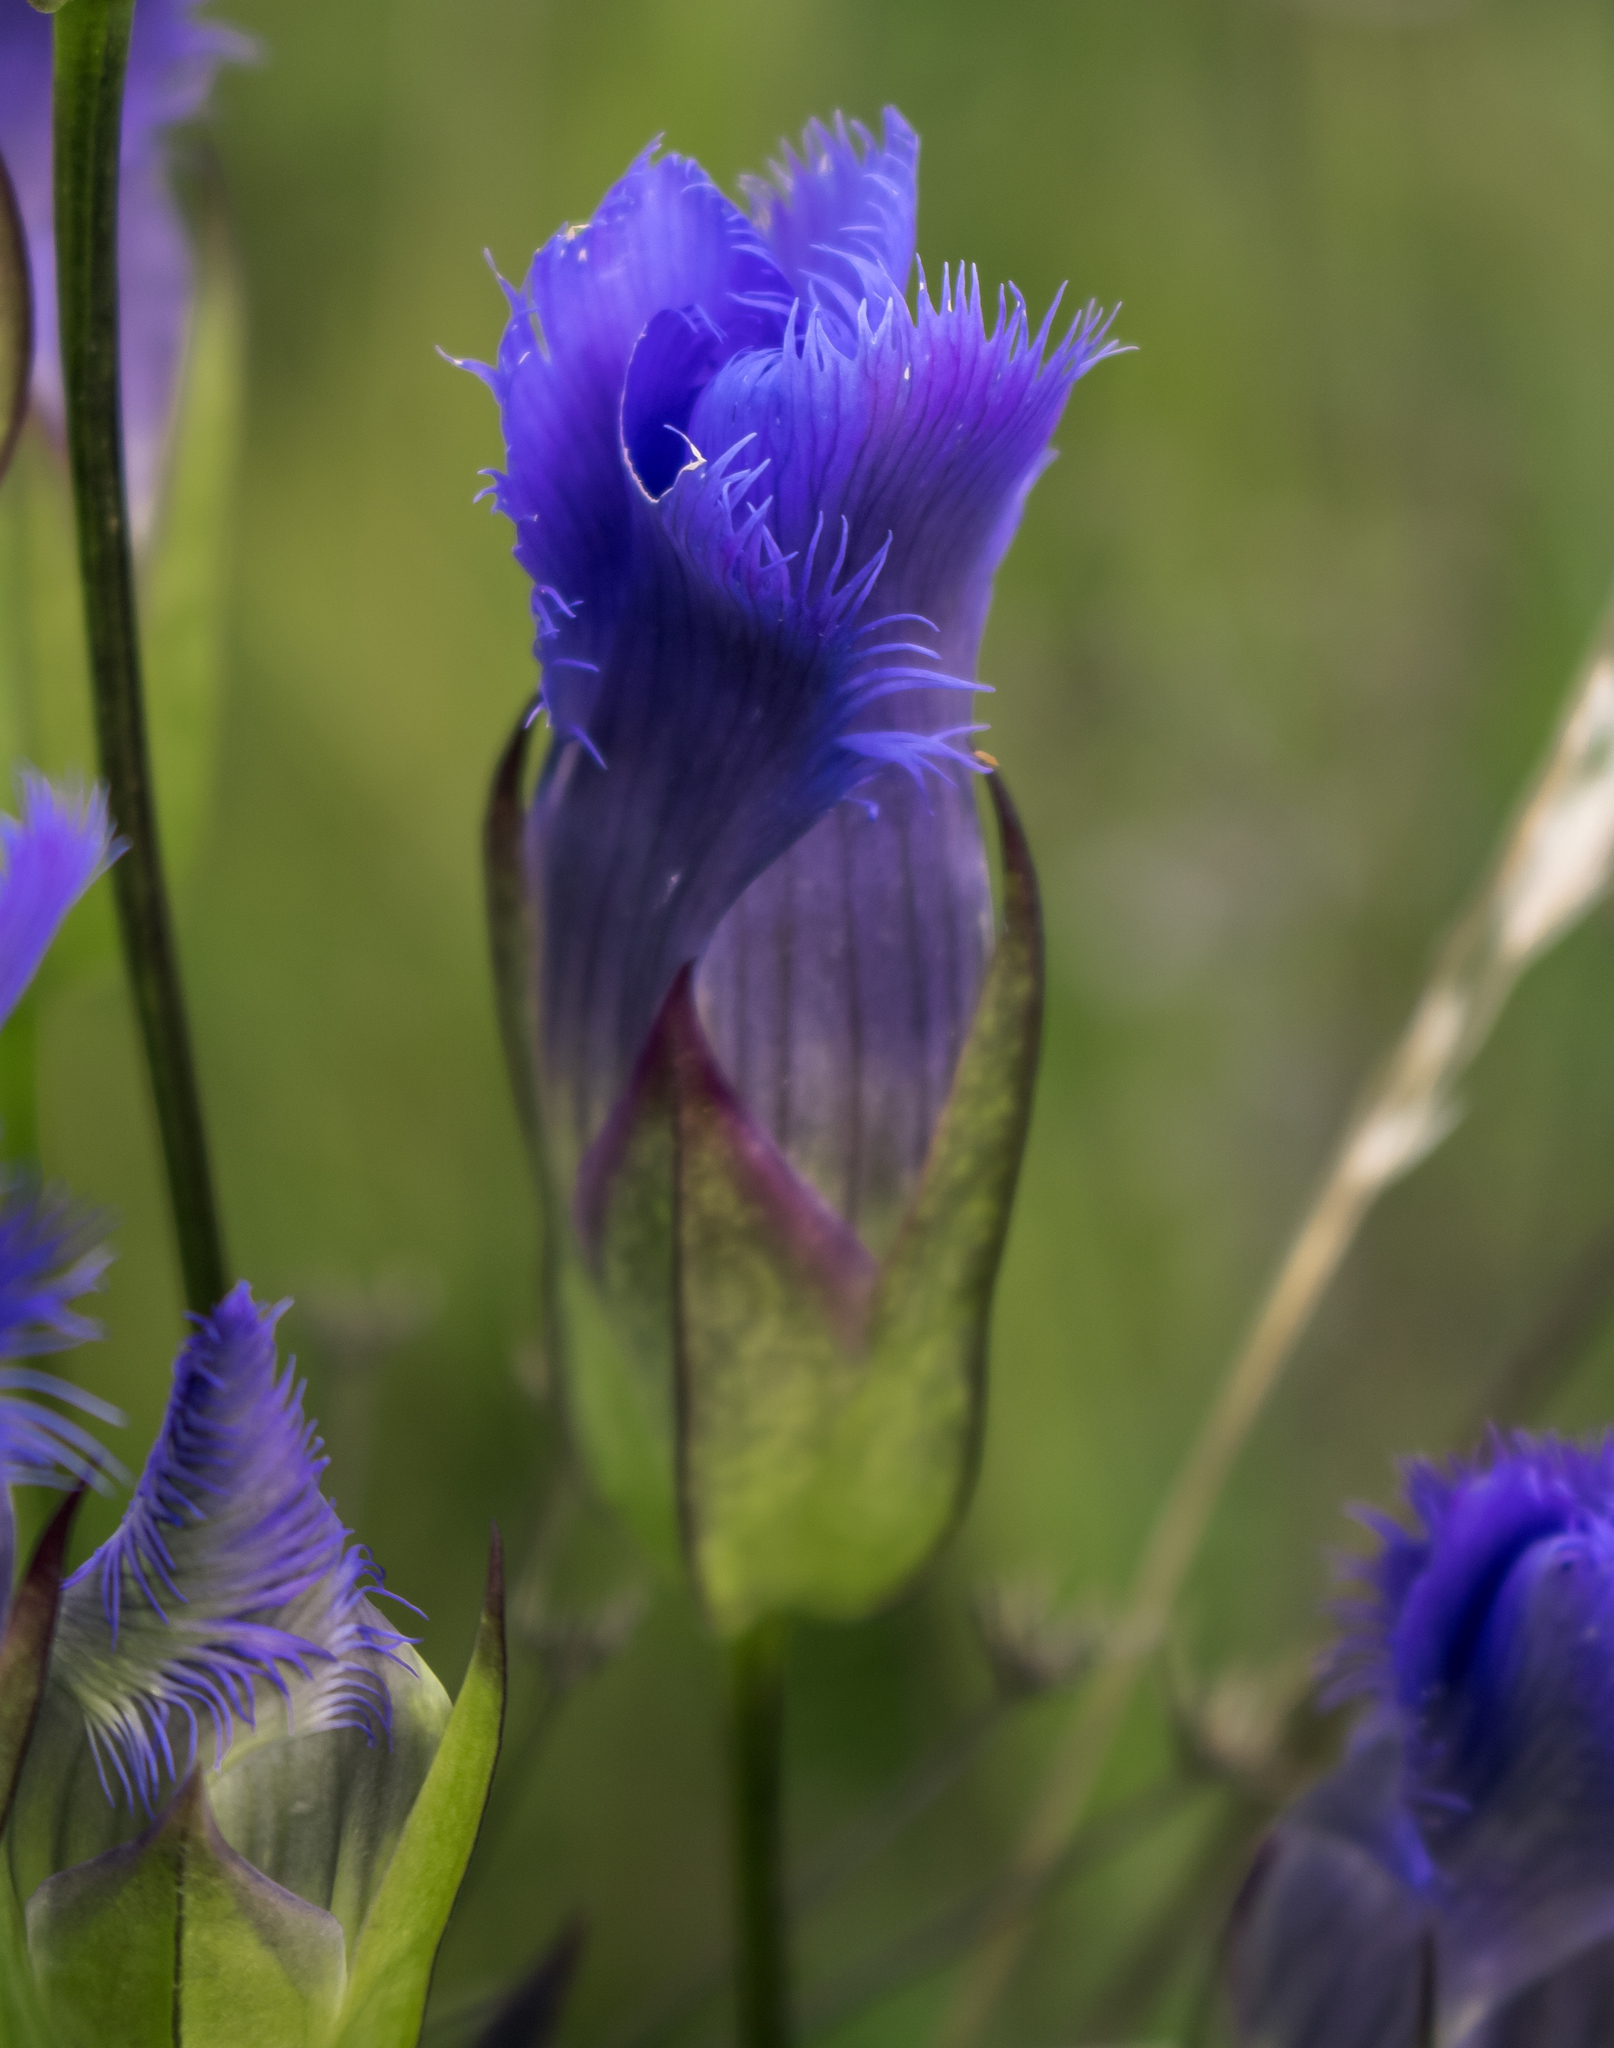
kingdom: Plantae
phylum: Tracheophyta
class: Magnoliopsida
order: Gentianales
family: Gentianaceae
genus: Gentianopsis
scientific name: Gentianopsis crinita
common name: Fringed-gentian
